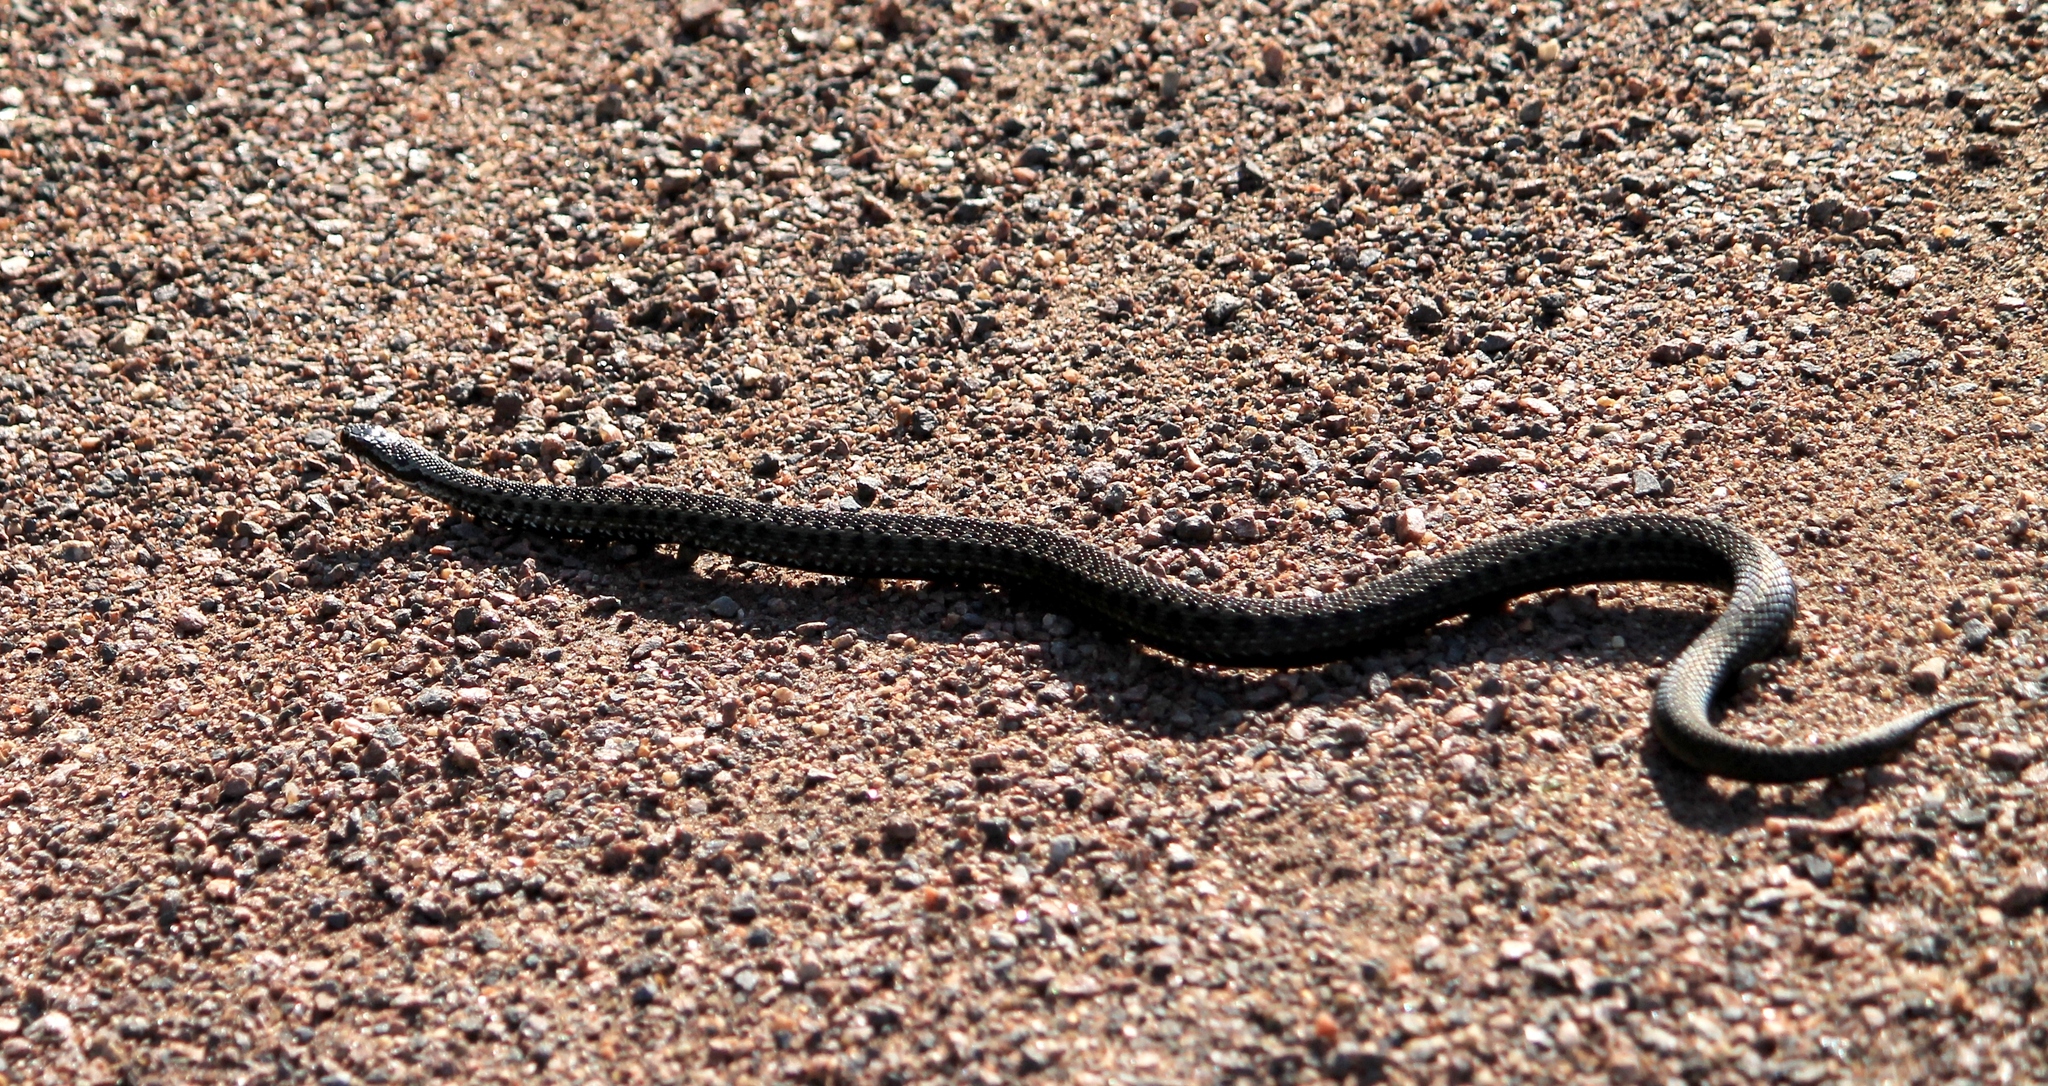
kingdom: Animalia
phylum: Chordata
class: Squamata
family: Viperidae
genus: Vipera
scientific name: Vipera berus
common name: Adder
